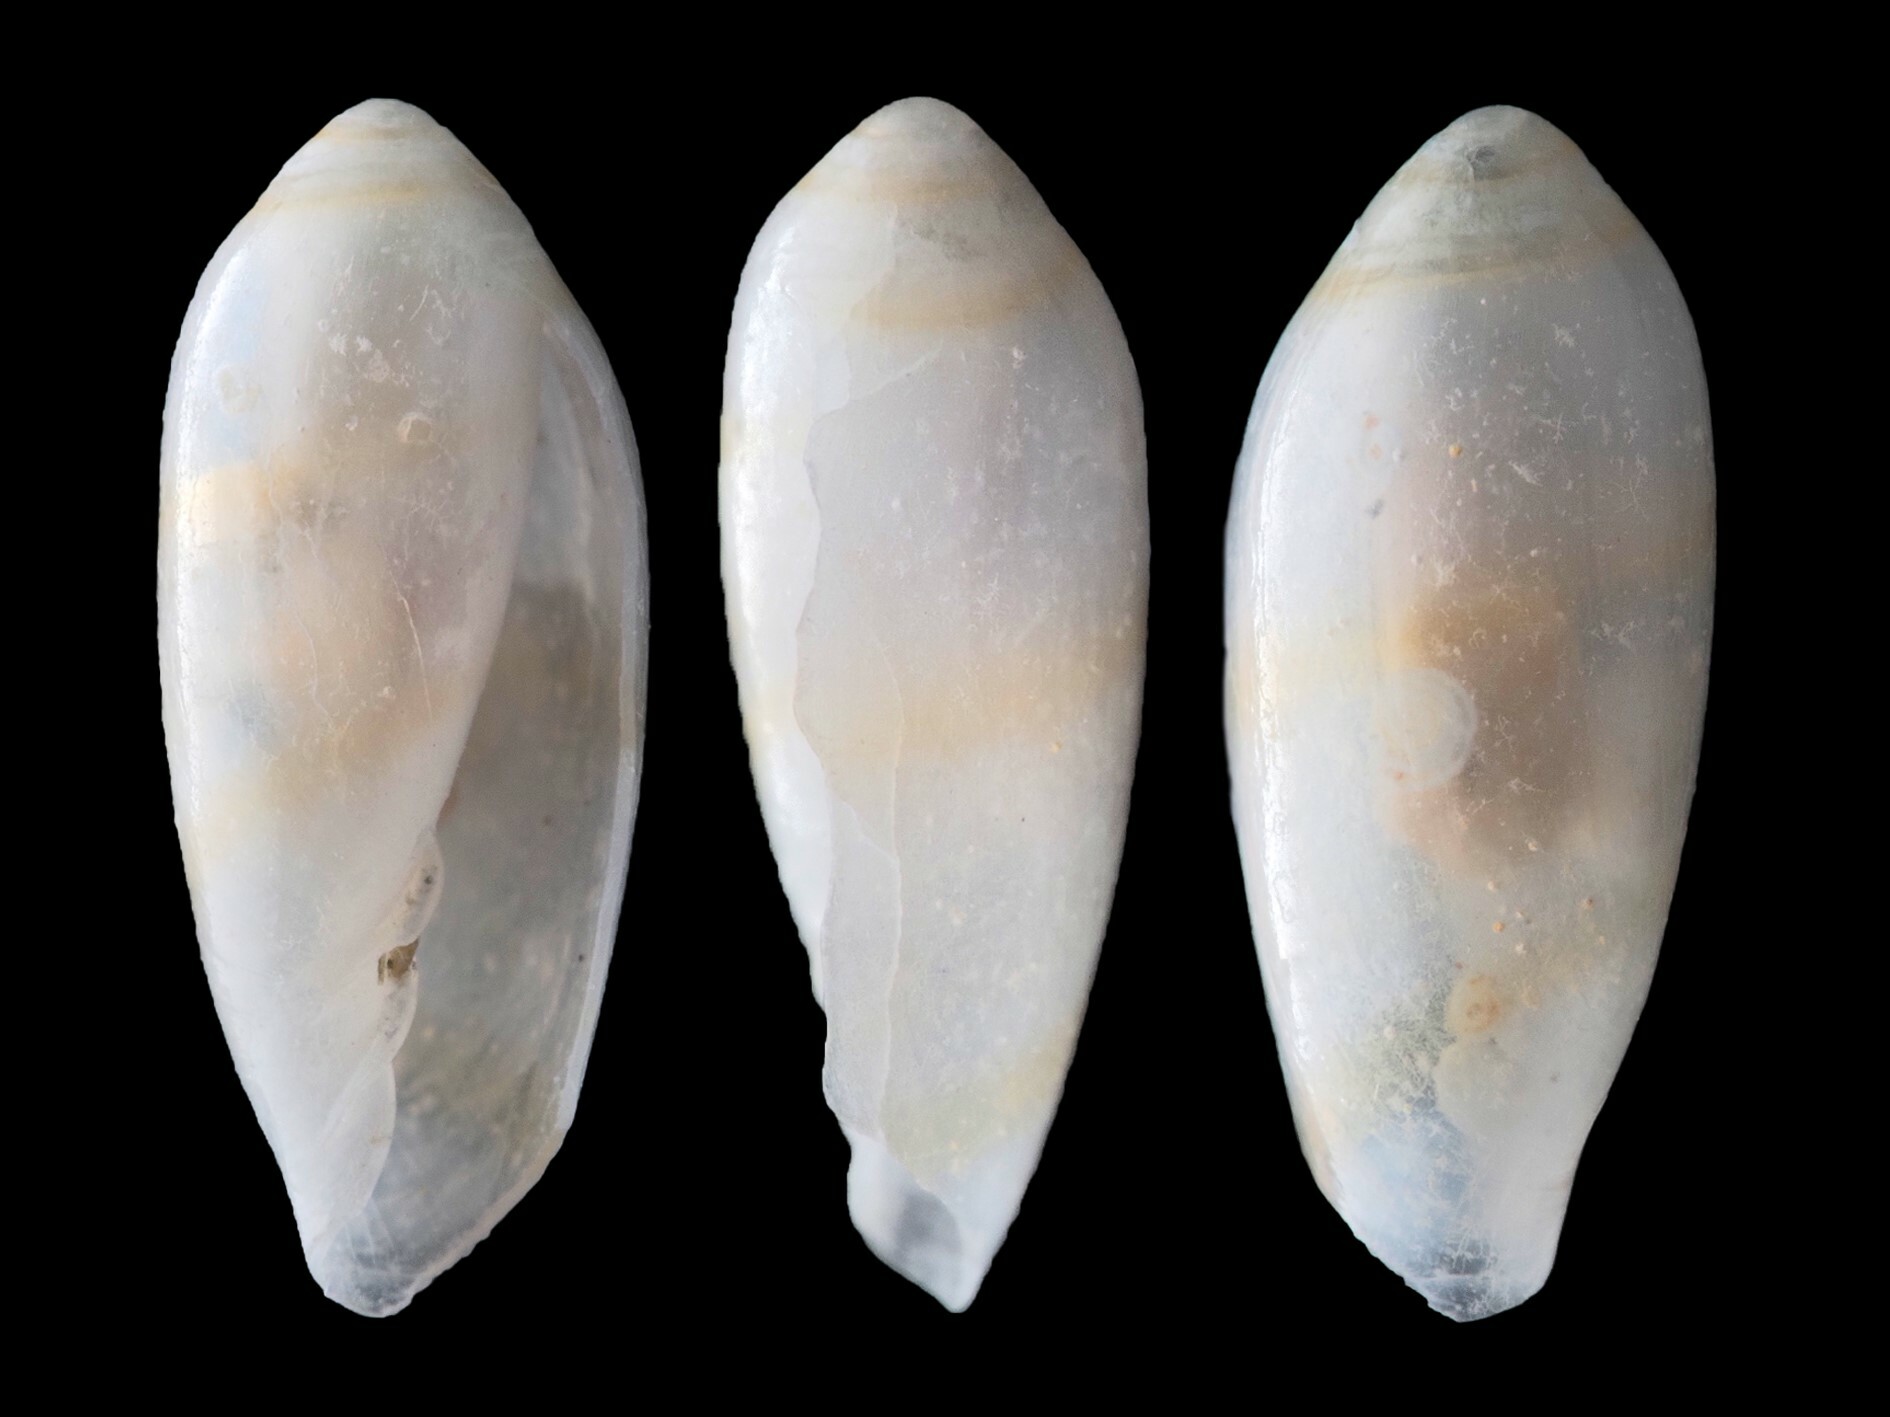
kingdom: Animalia
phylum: Mollusca
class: Gastropoda
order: Neogastropoda
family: Marginellidae
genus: Serrata
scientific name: Serrata maoriana
